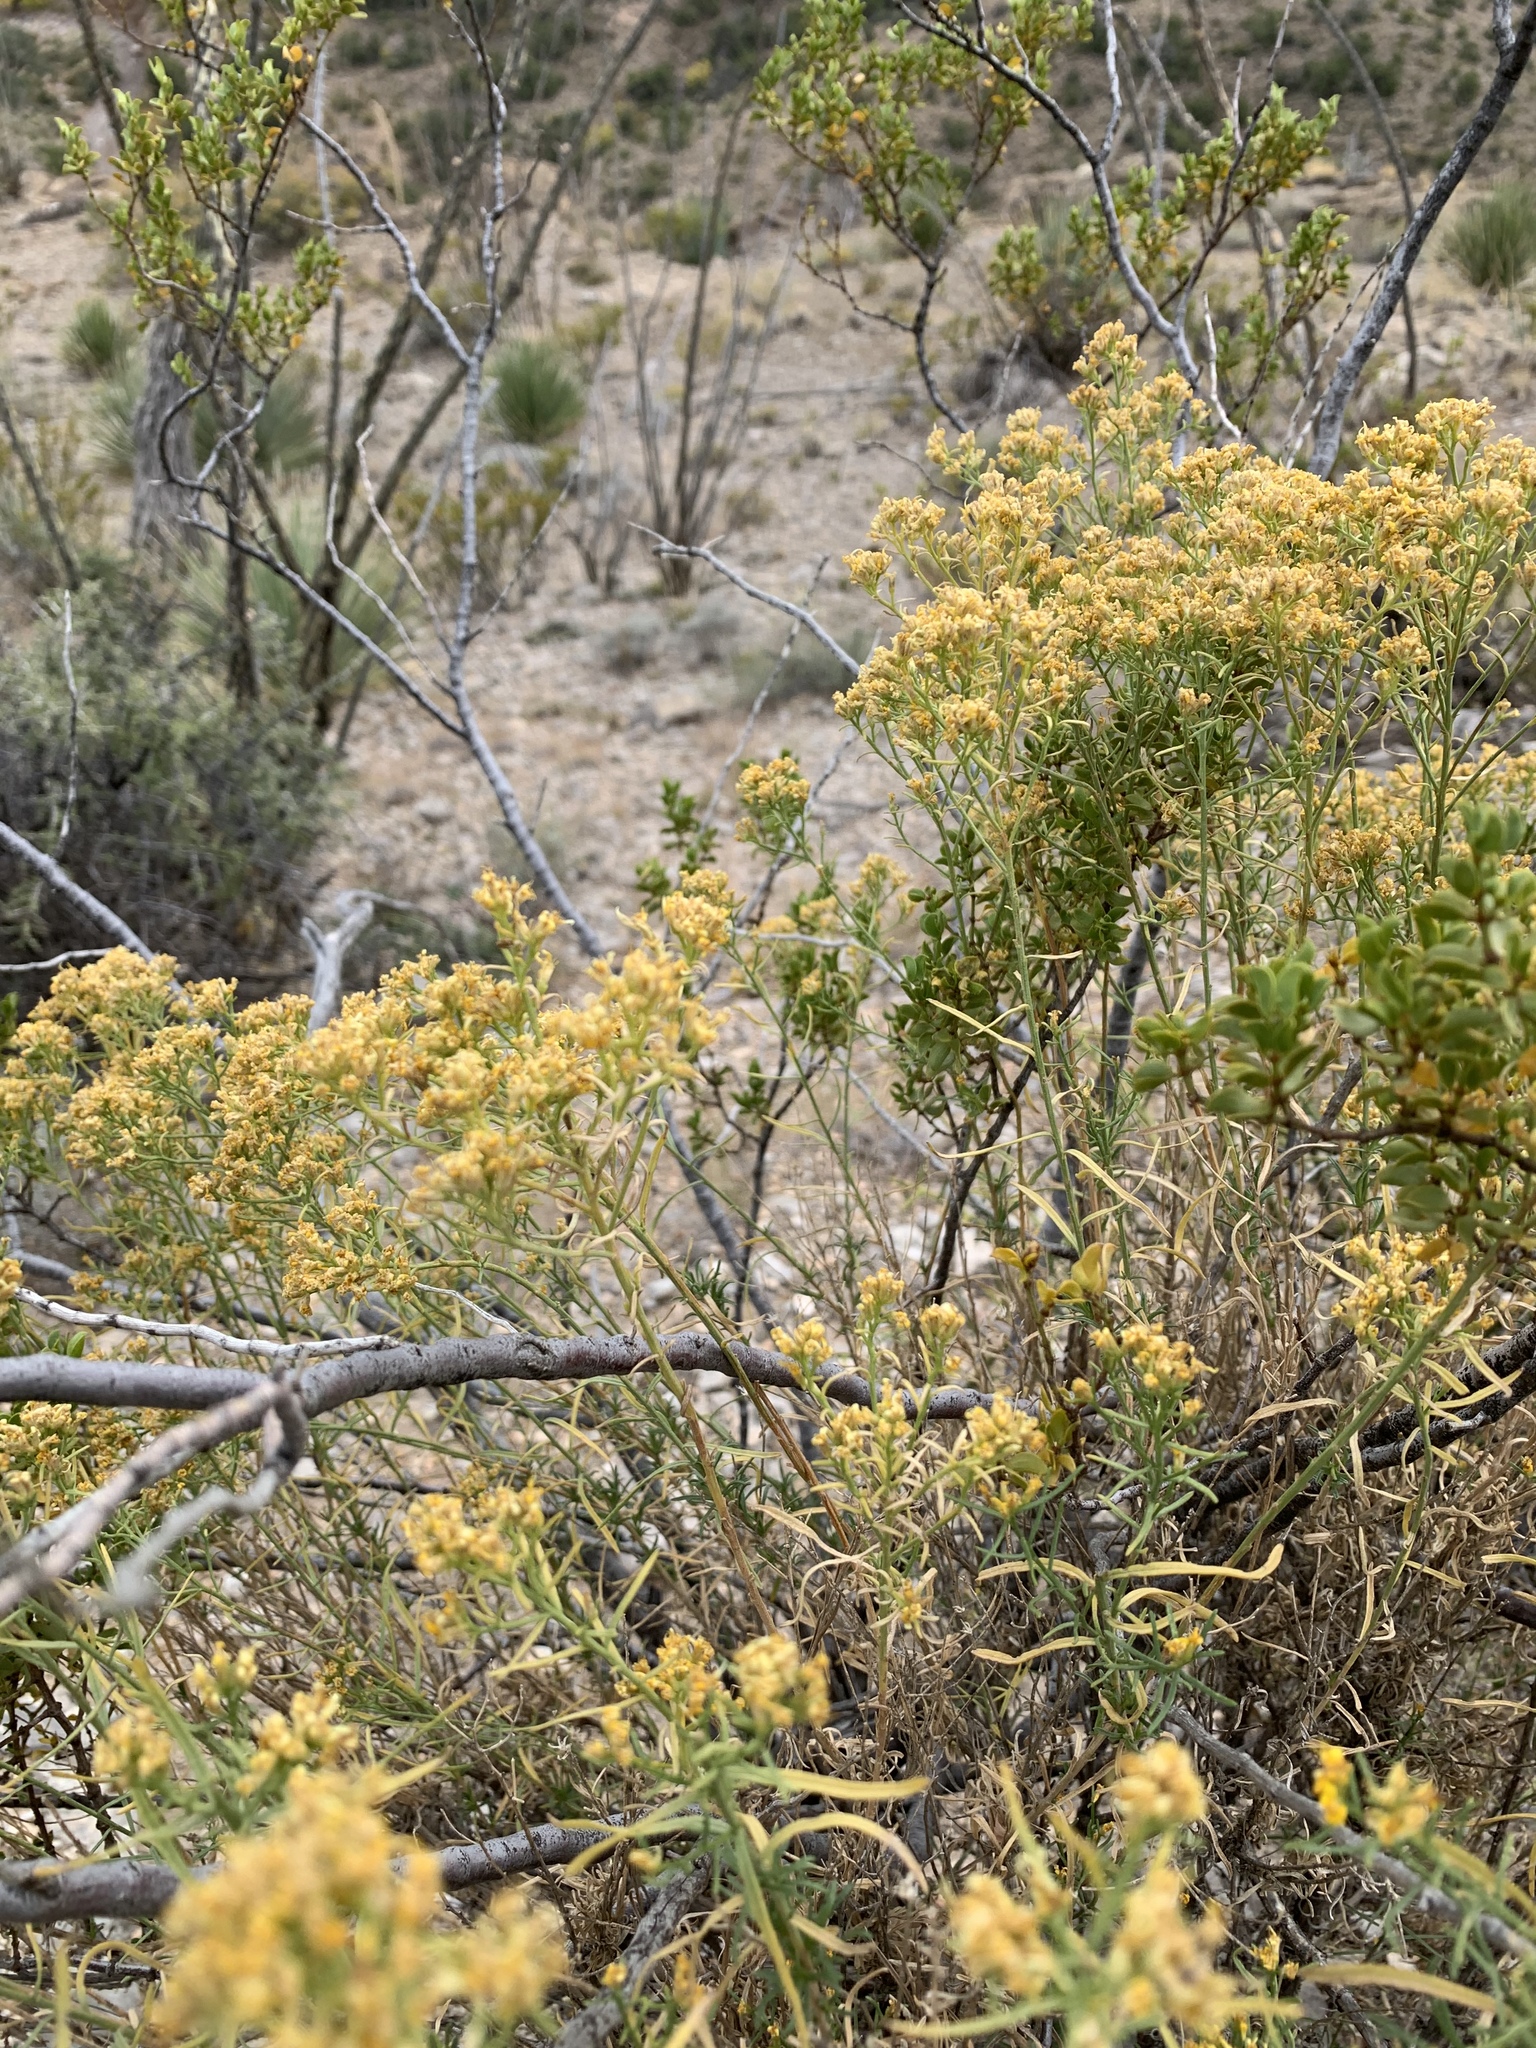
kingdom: Plantae
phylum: Tracheophyta
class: Magnoliopsida
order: Asterales
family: Asteraceae
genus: Gutierrezia
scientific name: Gutierrezia sarothrae
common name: Broom snakeweed
